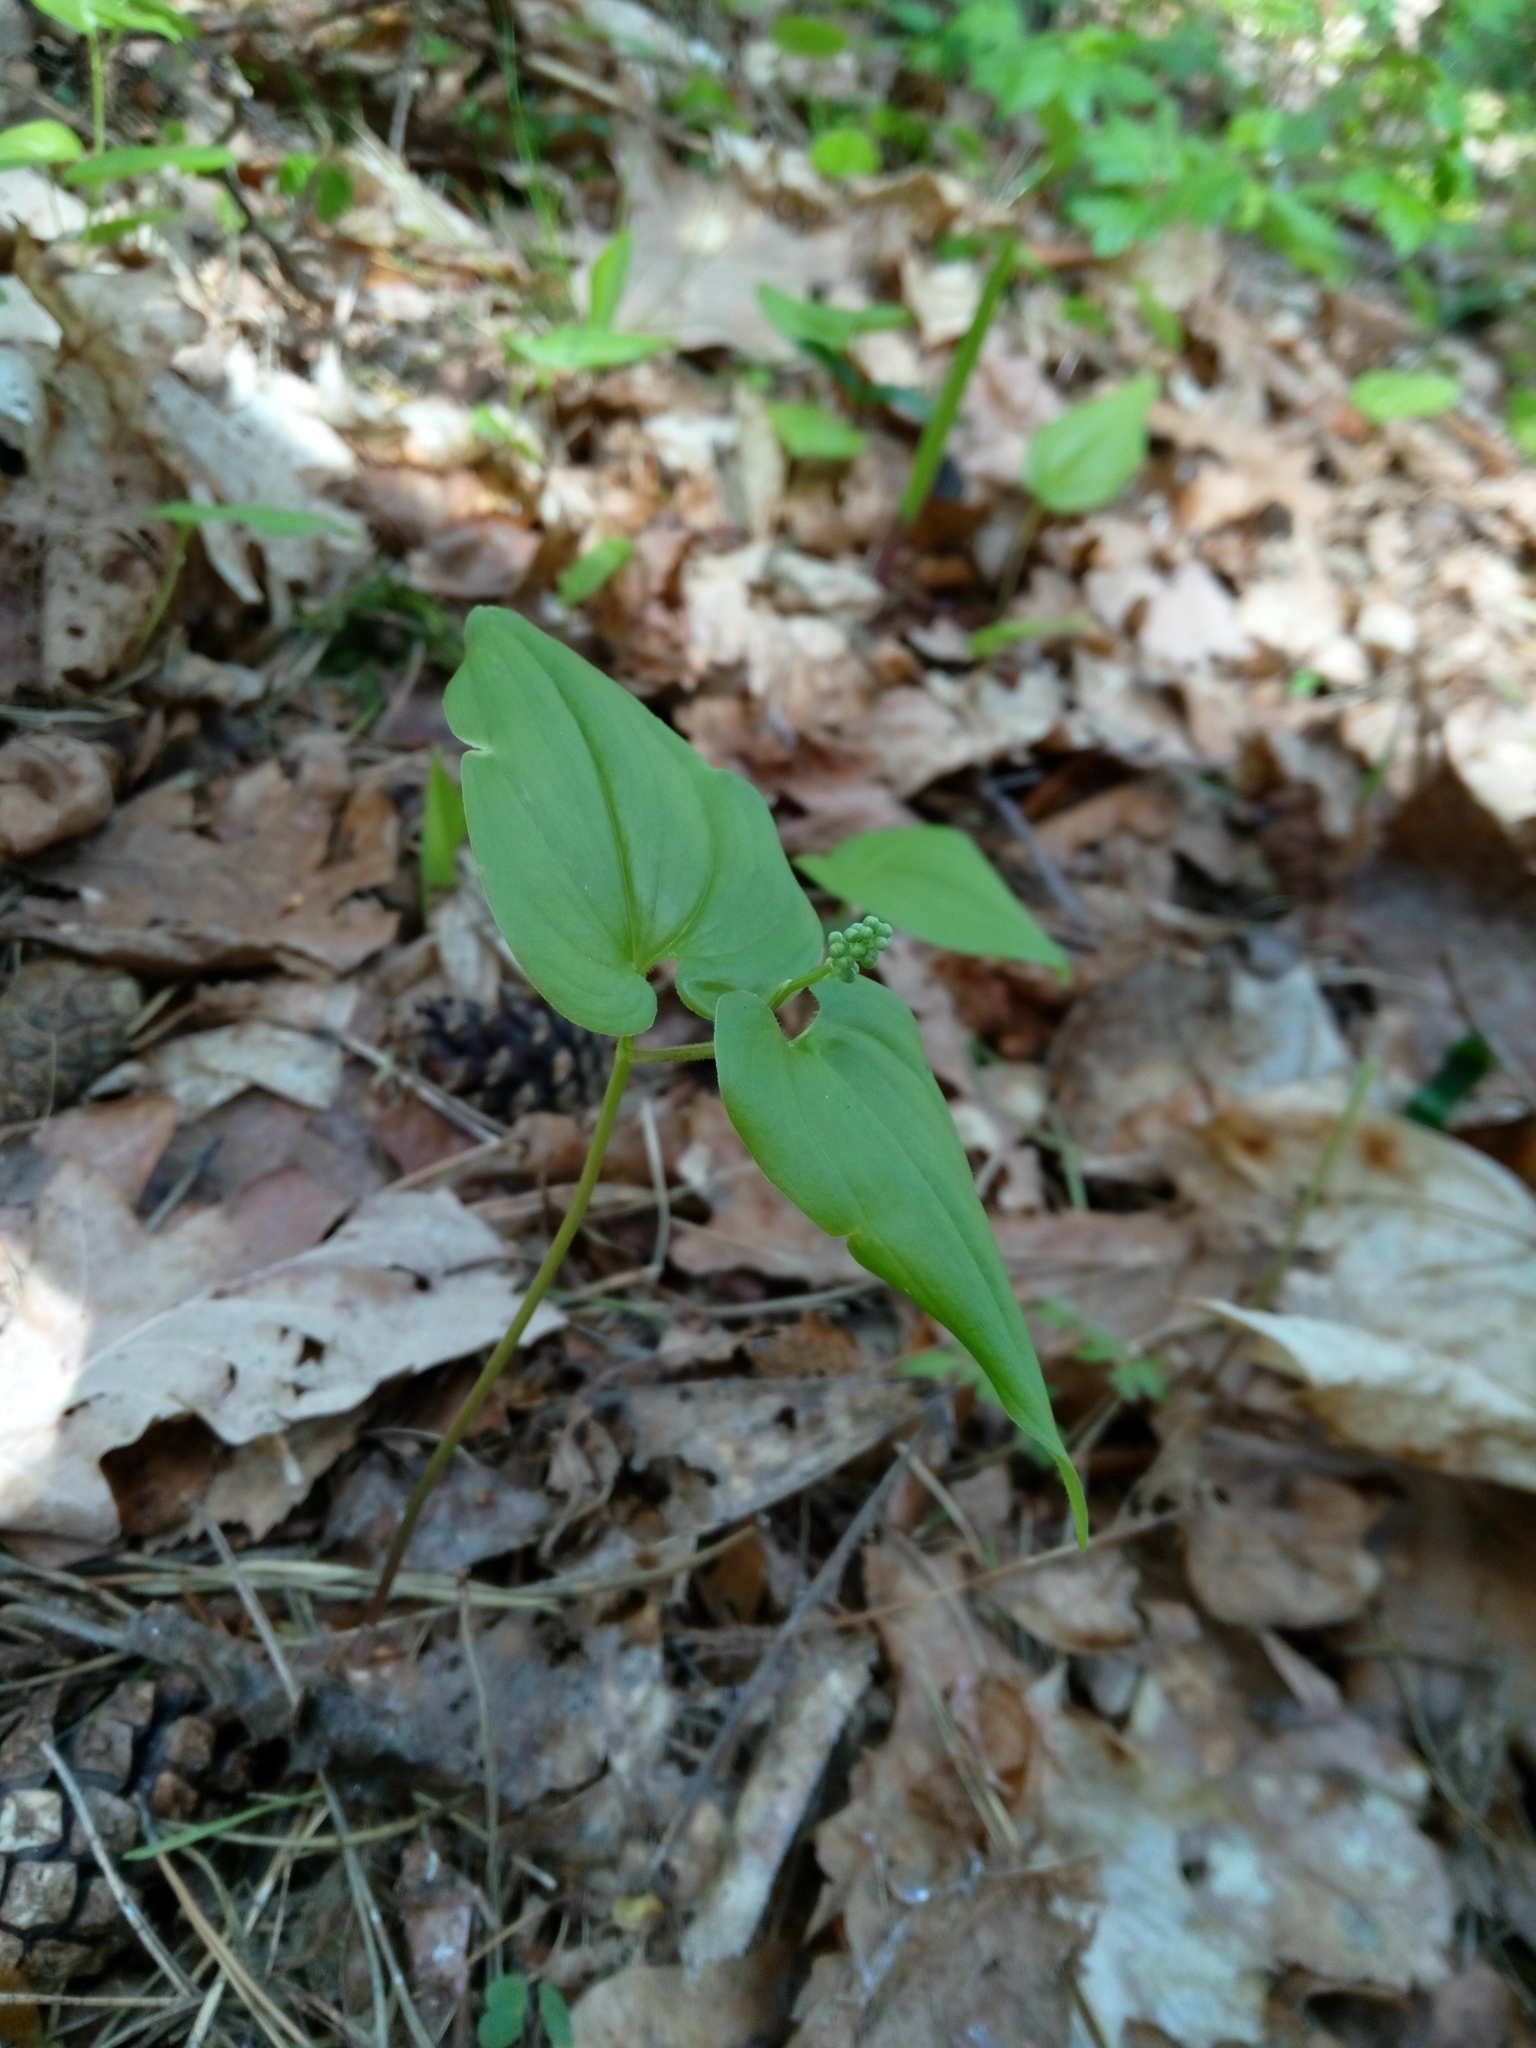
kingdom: Plantae
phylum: Tracheophyta
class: Liliopsida
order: Asparagales
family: Asparagaceae
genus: Maianthemum
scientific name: Maianthemum bifolium
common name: May lily
